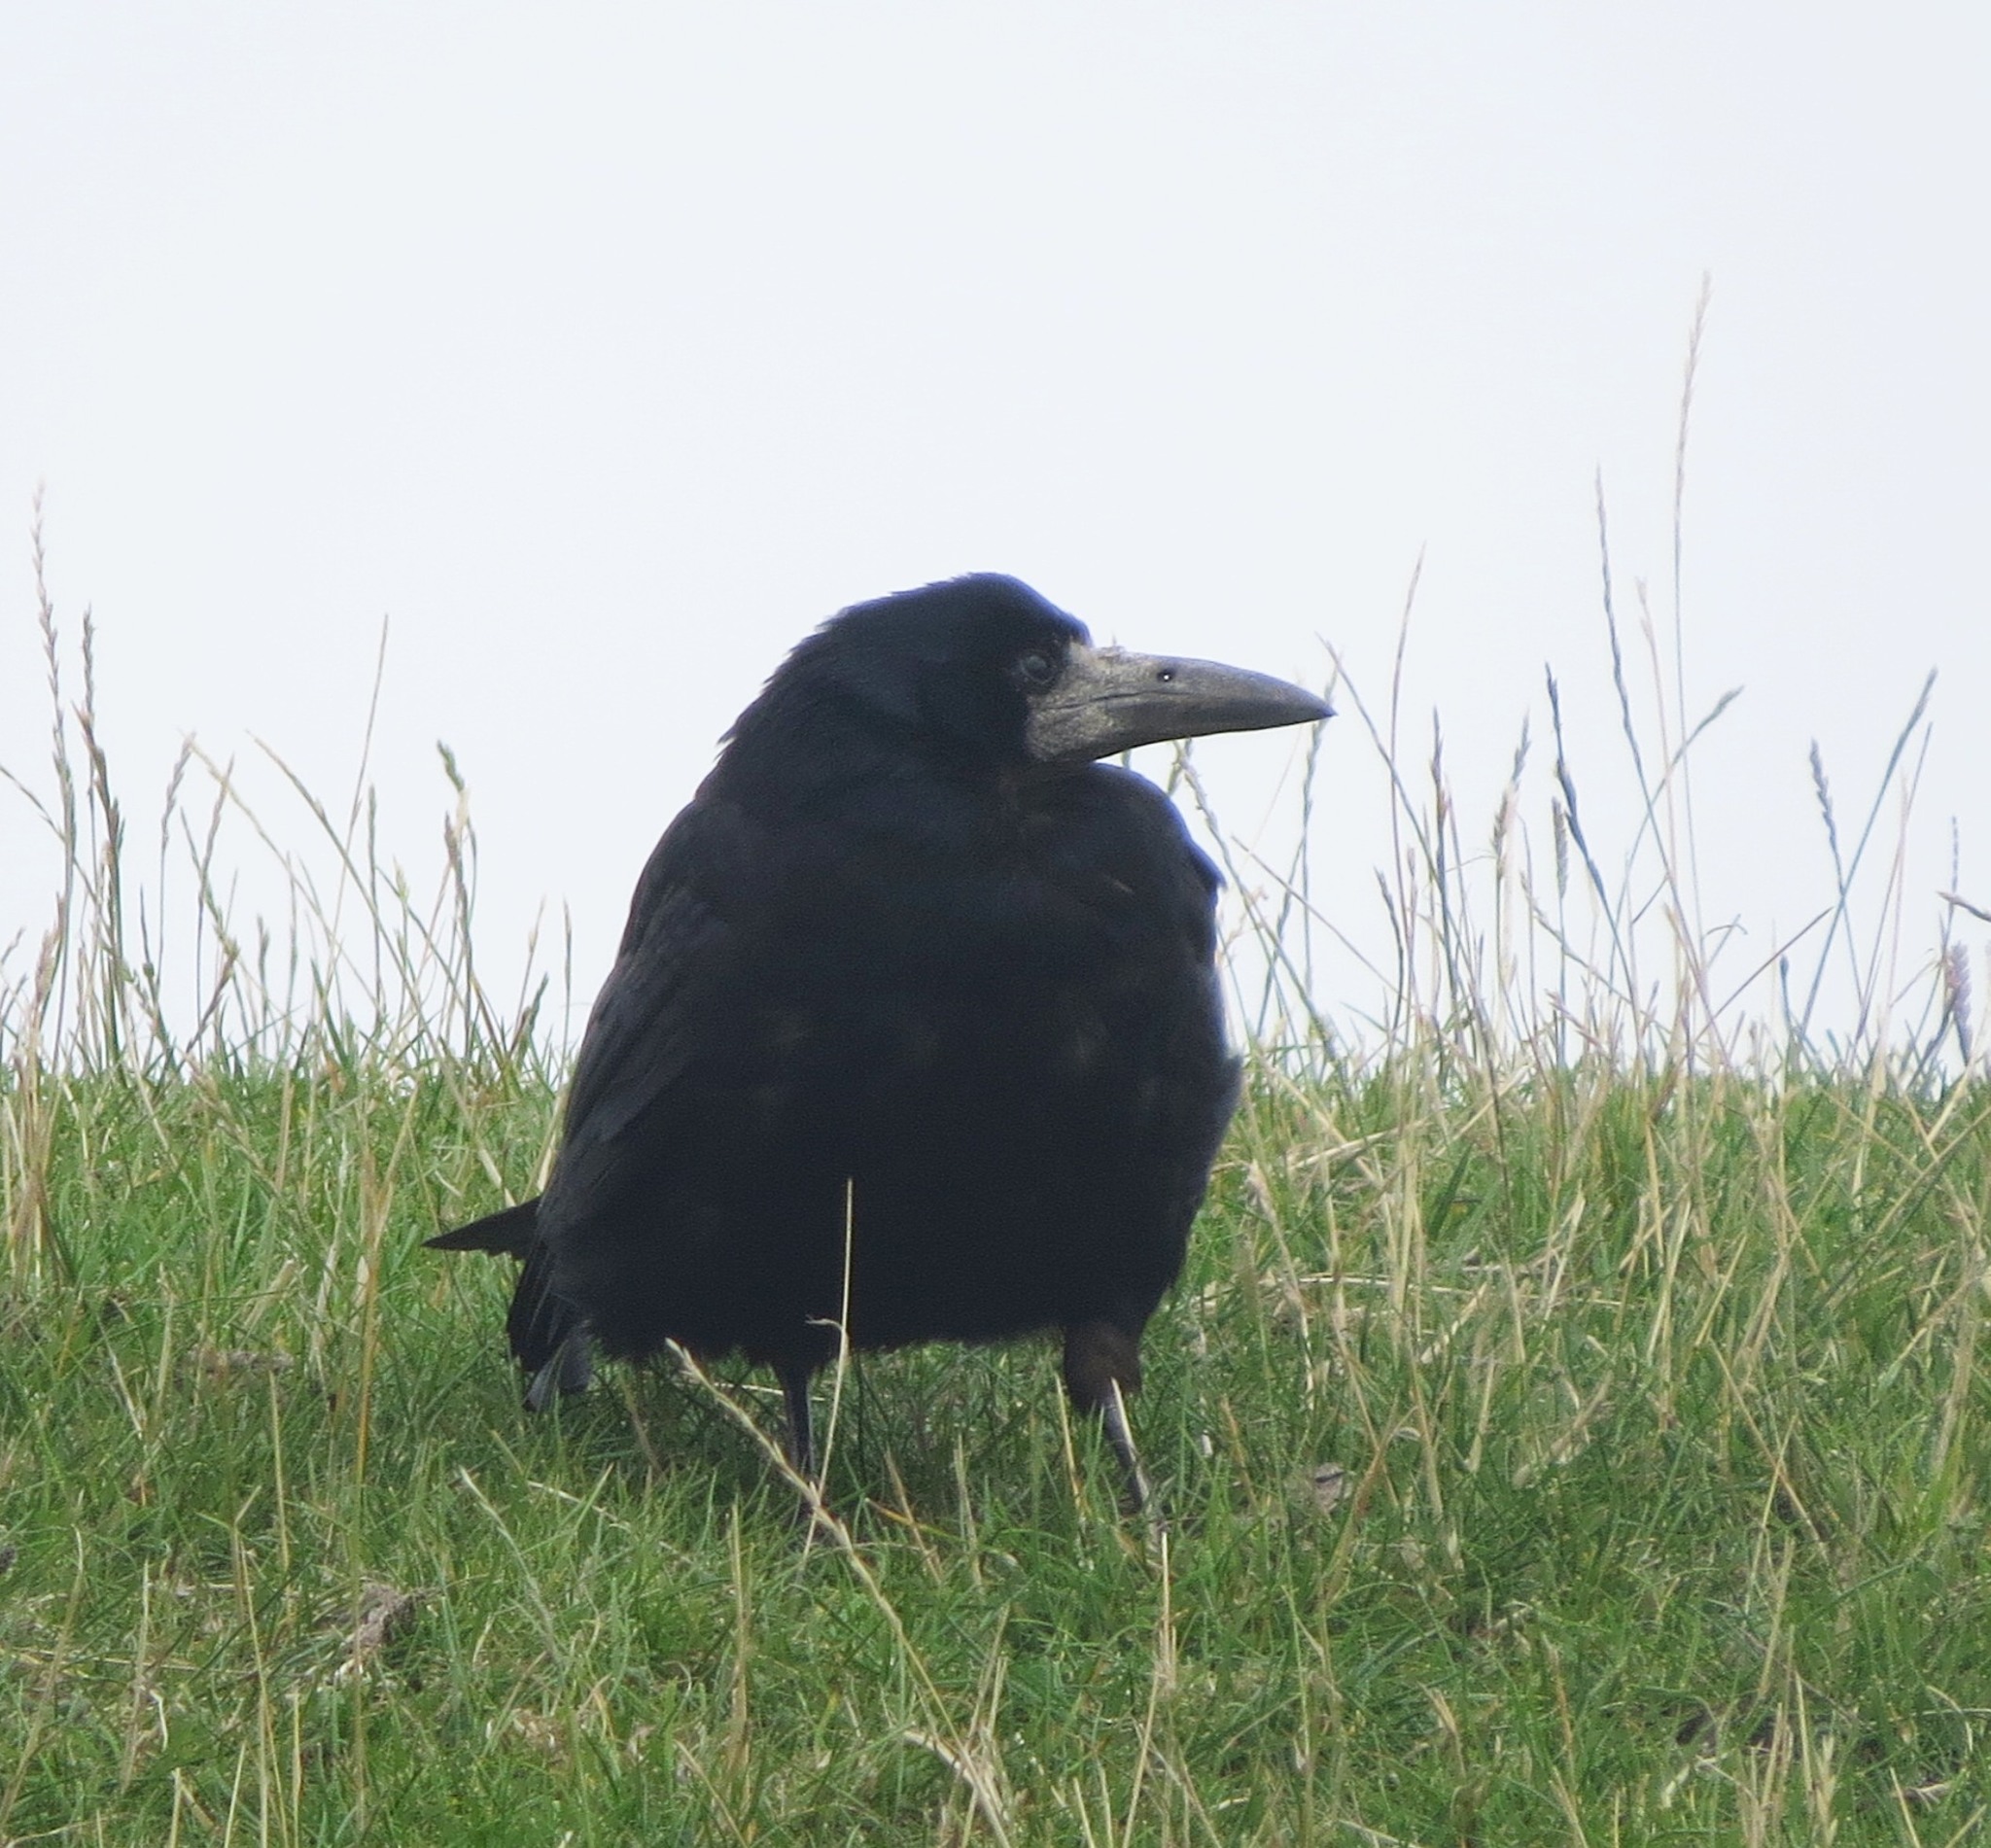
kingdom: Animalia
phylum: Chordata
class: Aves
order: Passeriformes
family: Corvidae
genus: Corvus
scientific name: Corvus frugilegus
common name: Rook
